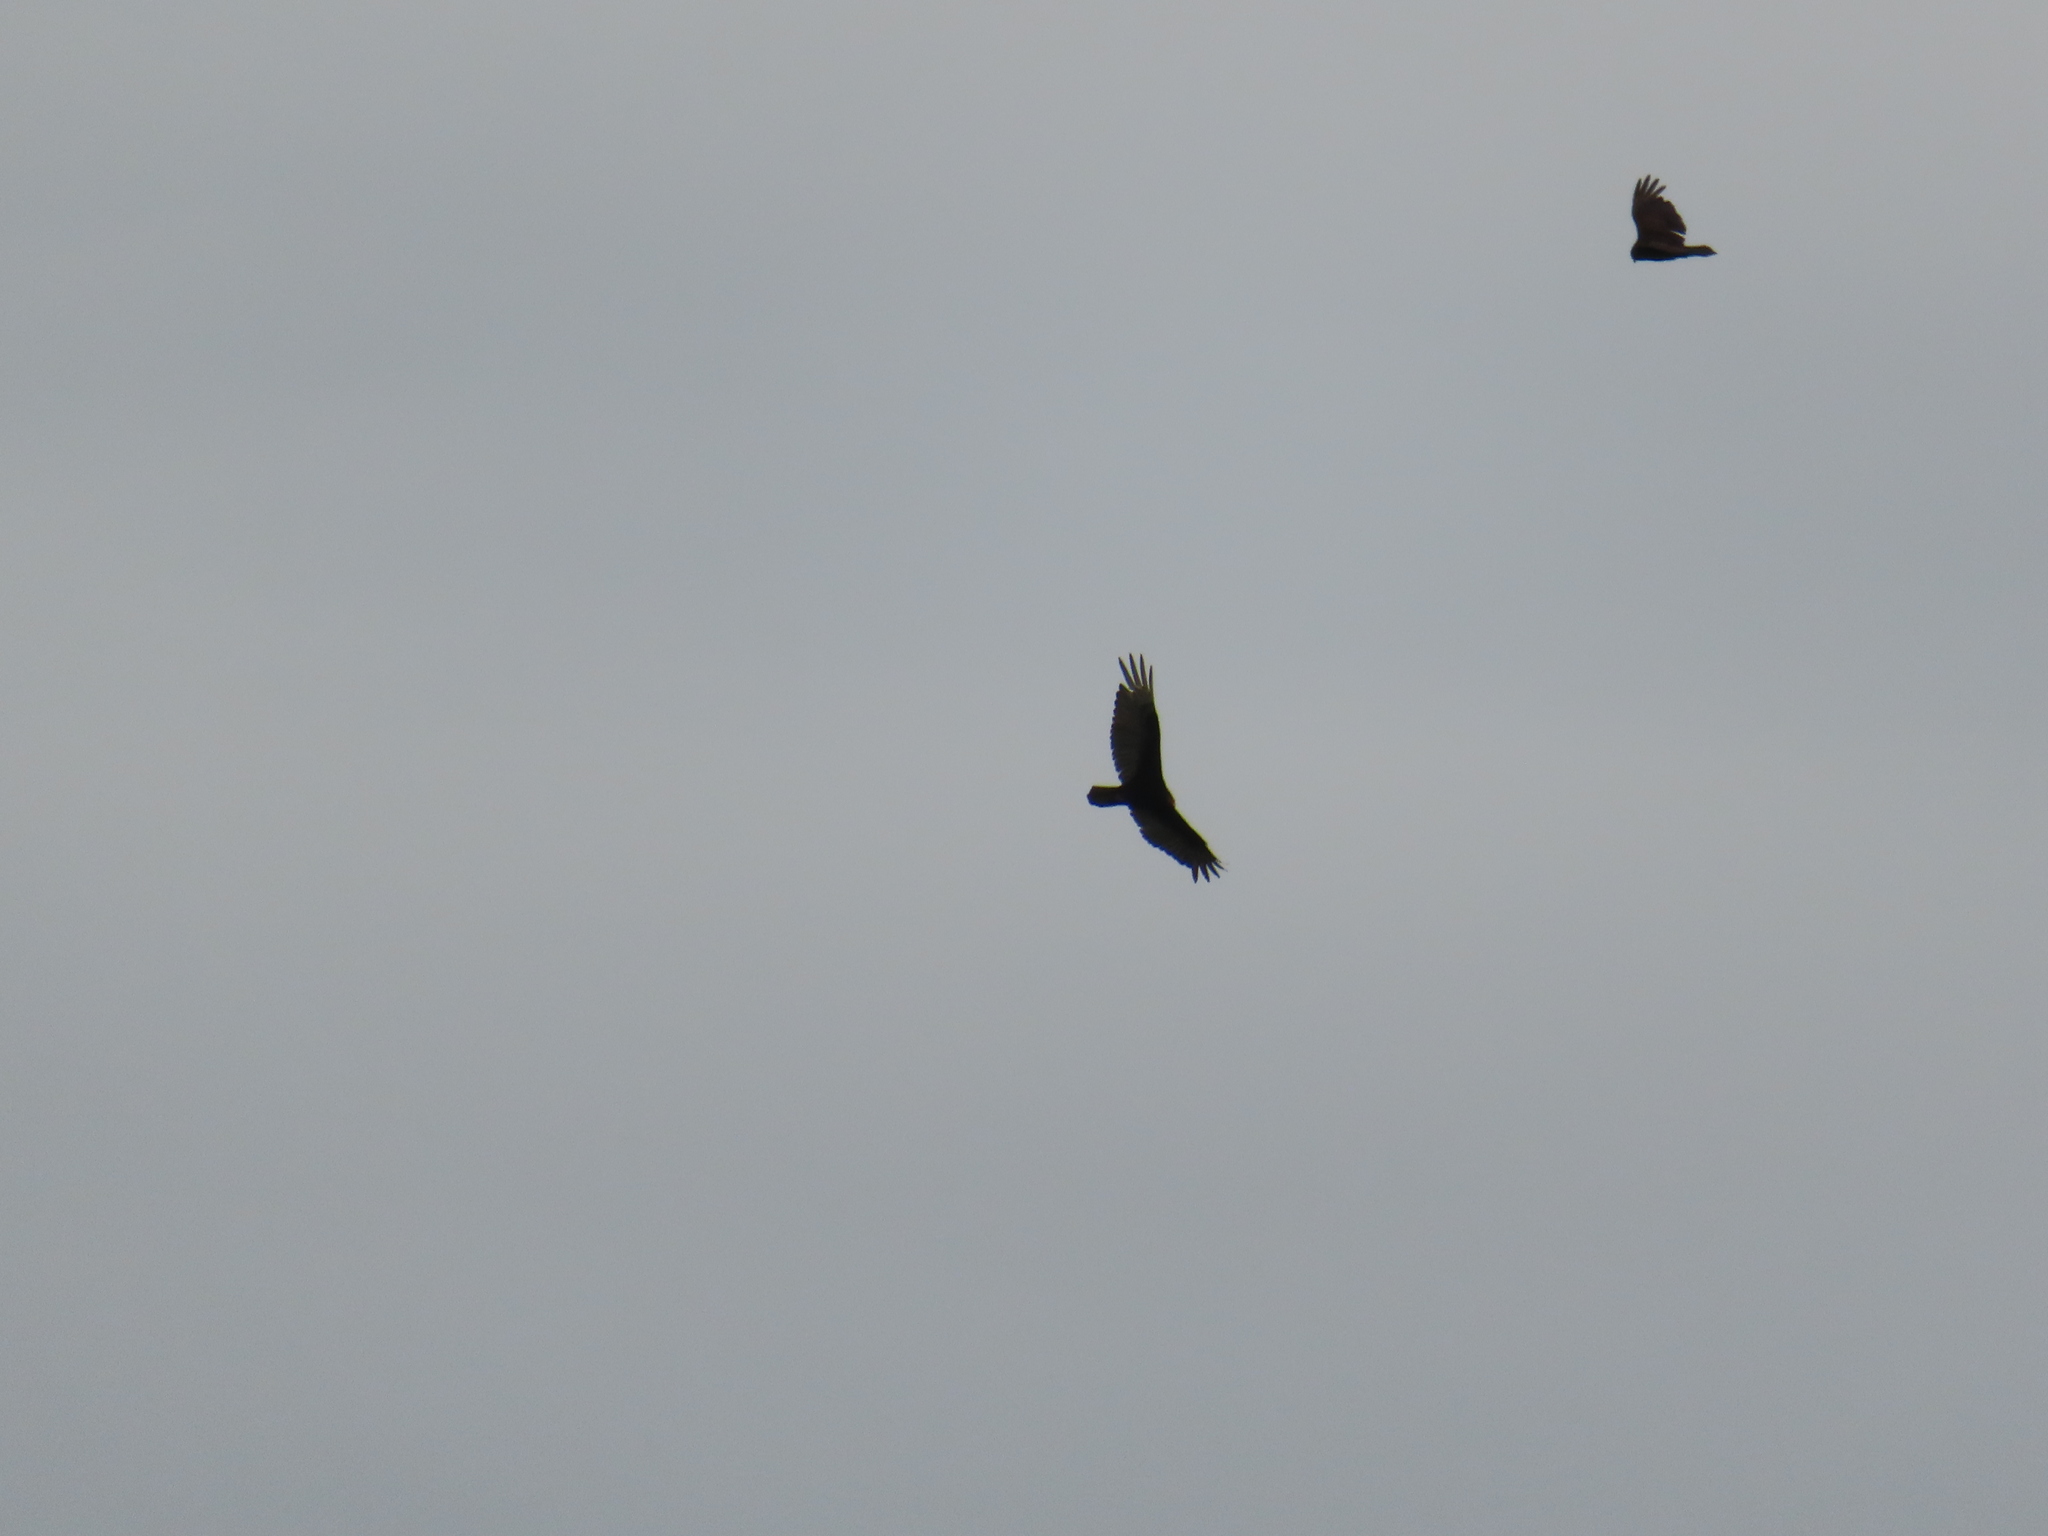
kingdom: Animalia
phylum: Chordata
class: Aves
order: Accipitriformes
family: Cathartidae
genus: Cathartes
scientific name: Cathartes aura
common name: Turkey vulture
